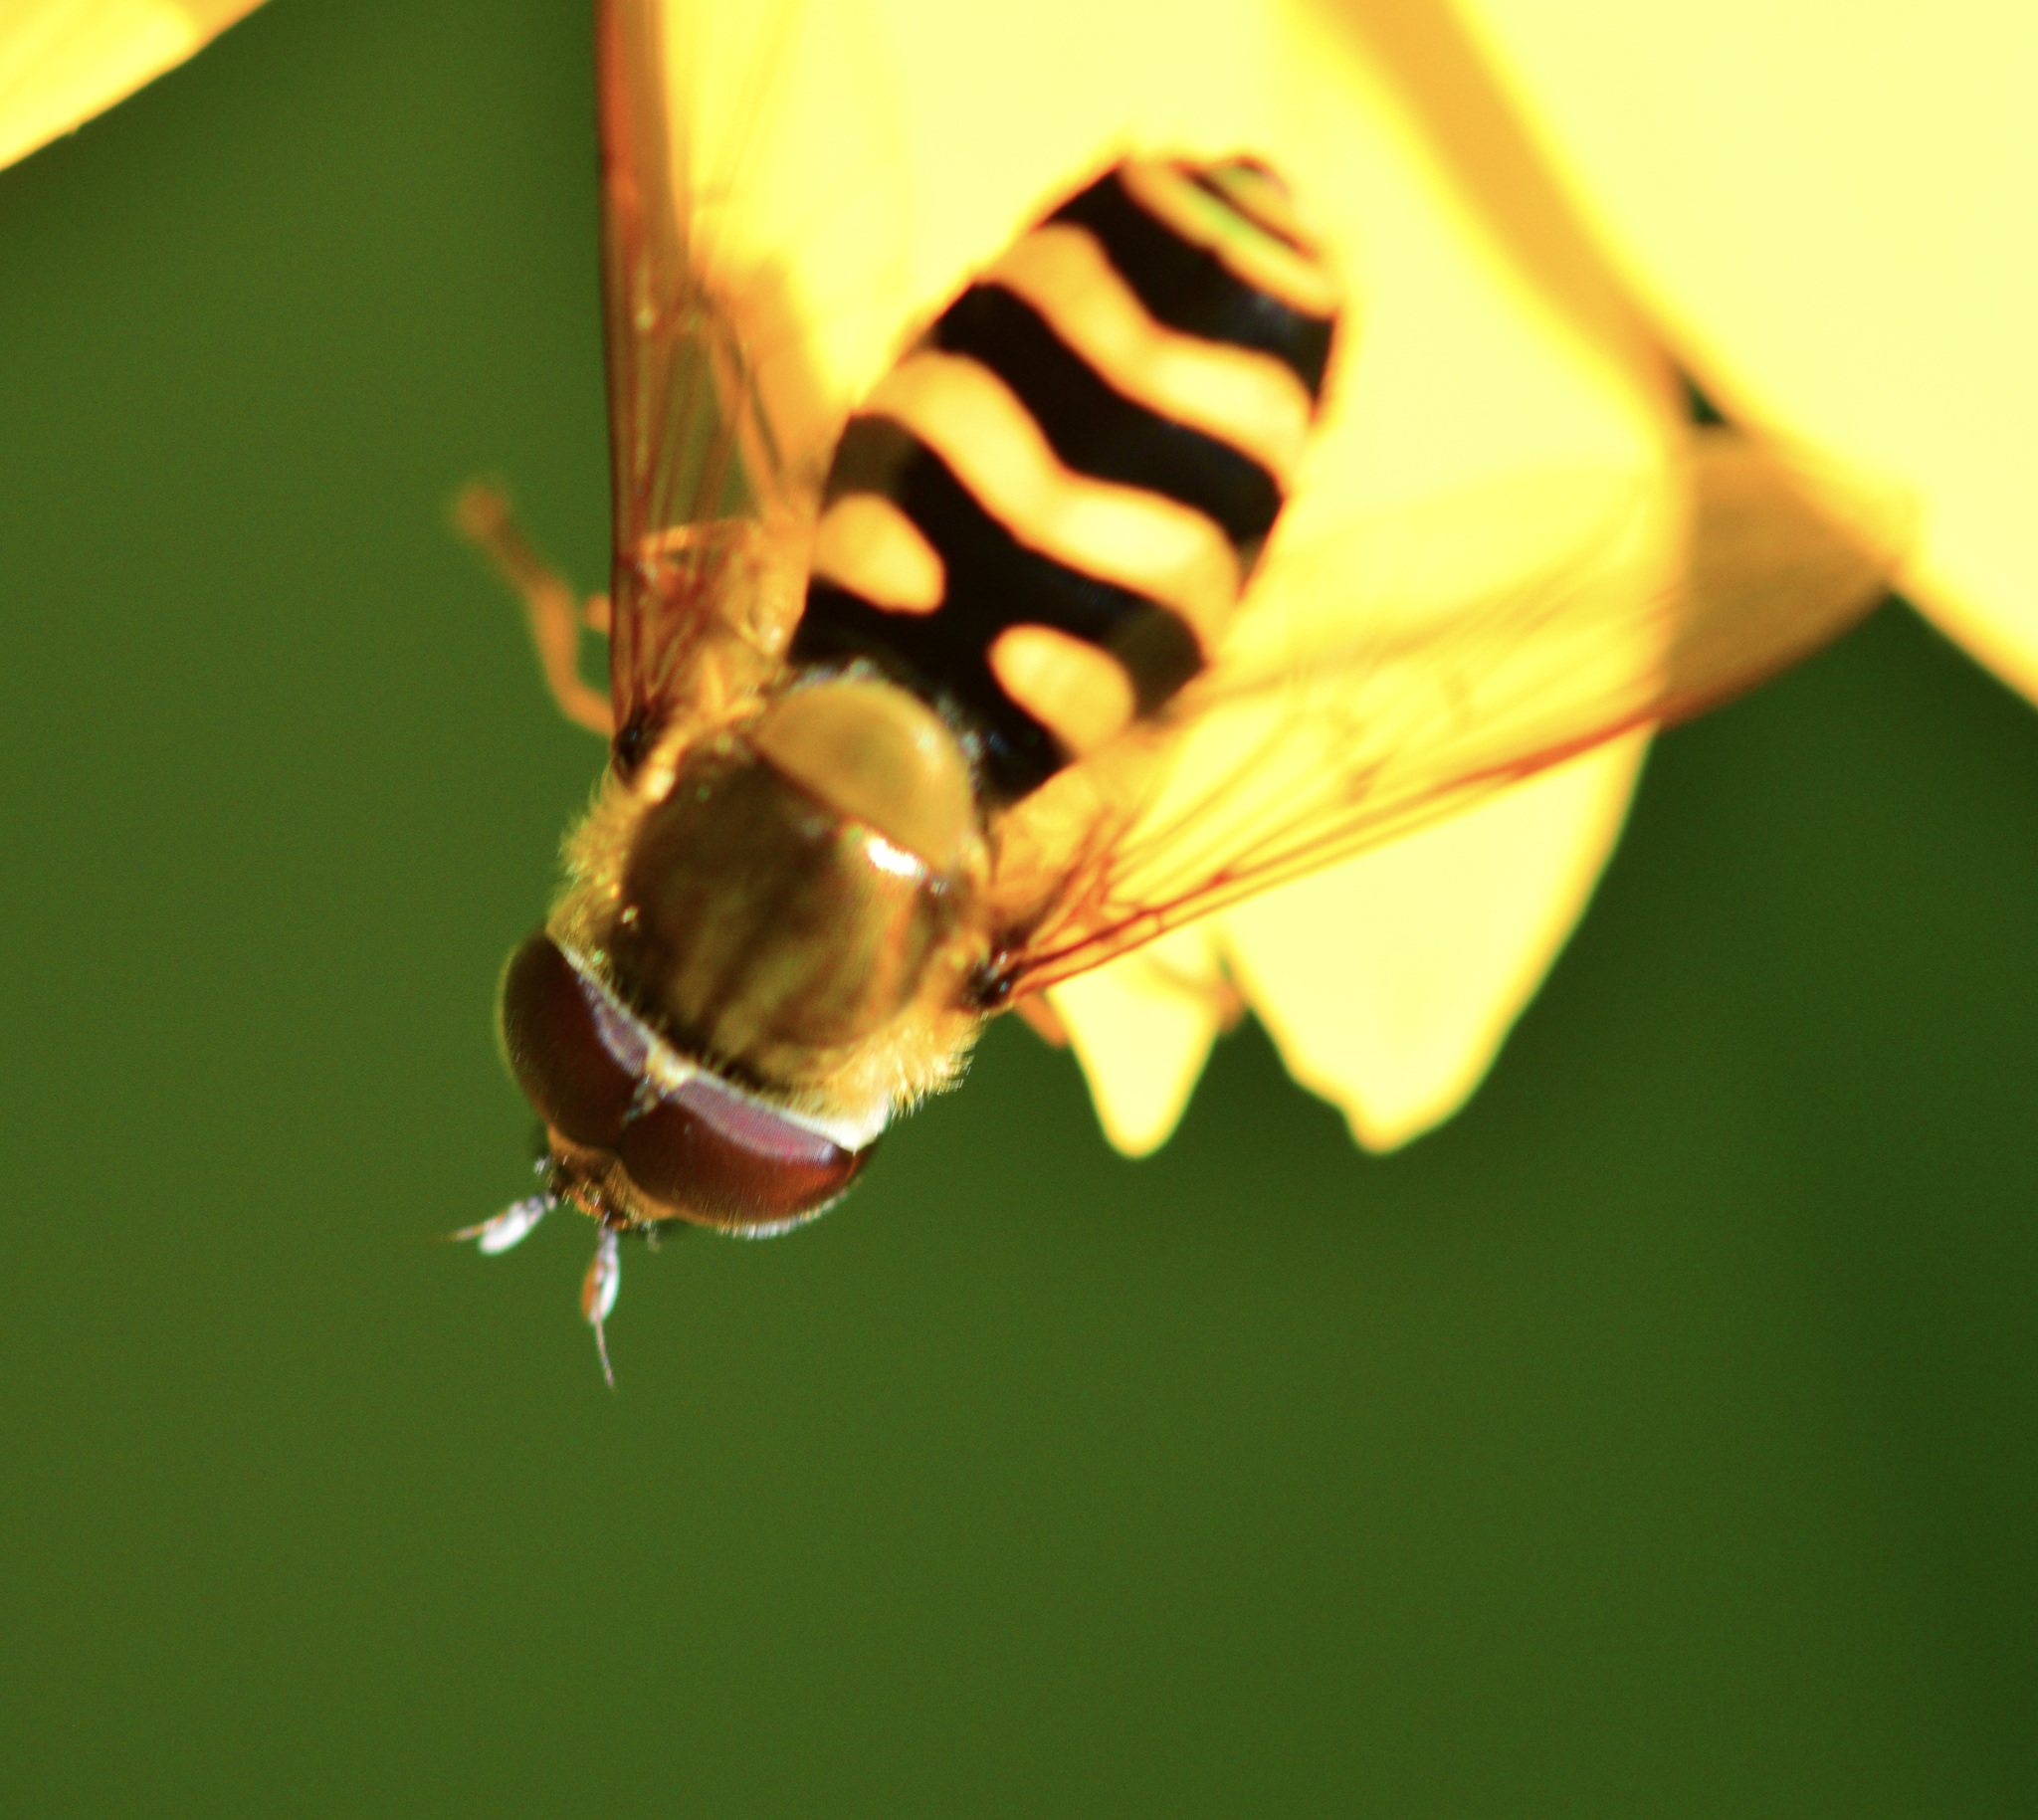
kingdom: Animalia
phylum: Arthropoda
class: Insecta
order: Diptera
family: Syrphidae
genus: Syrphus
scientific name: Syrphus torvus
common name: Hairy-eyed flower fly
